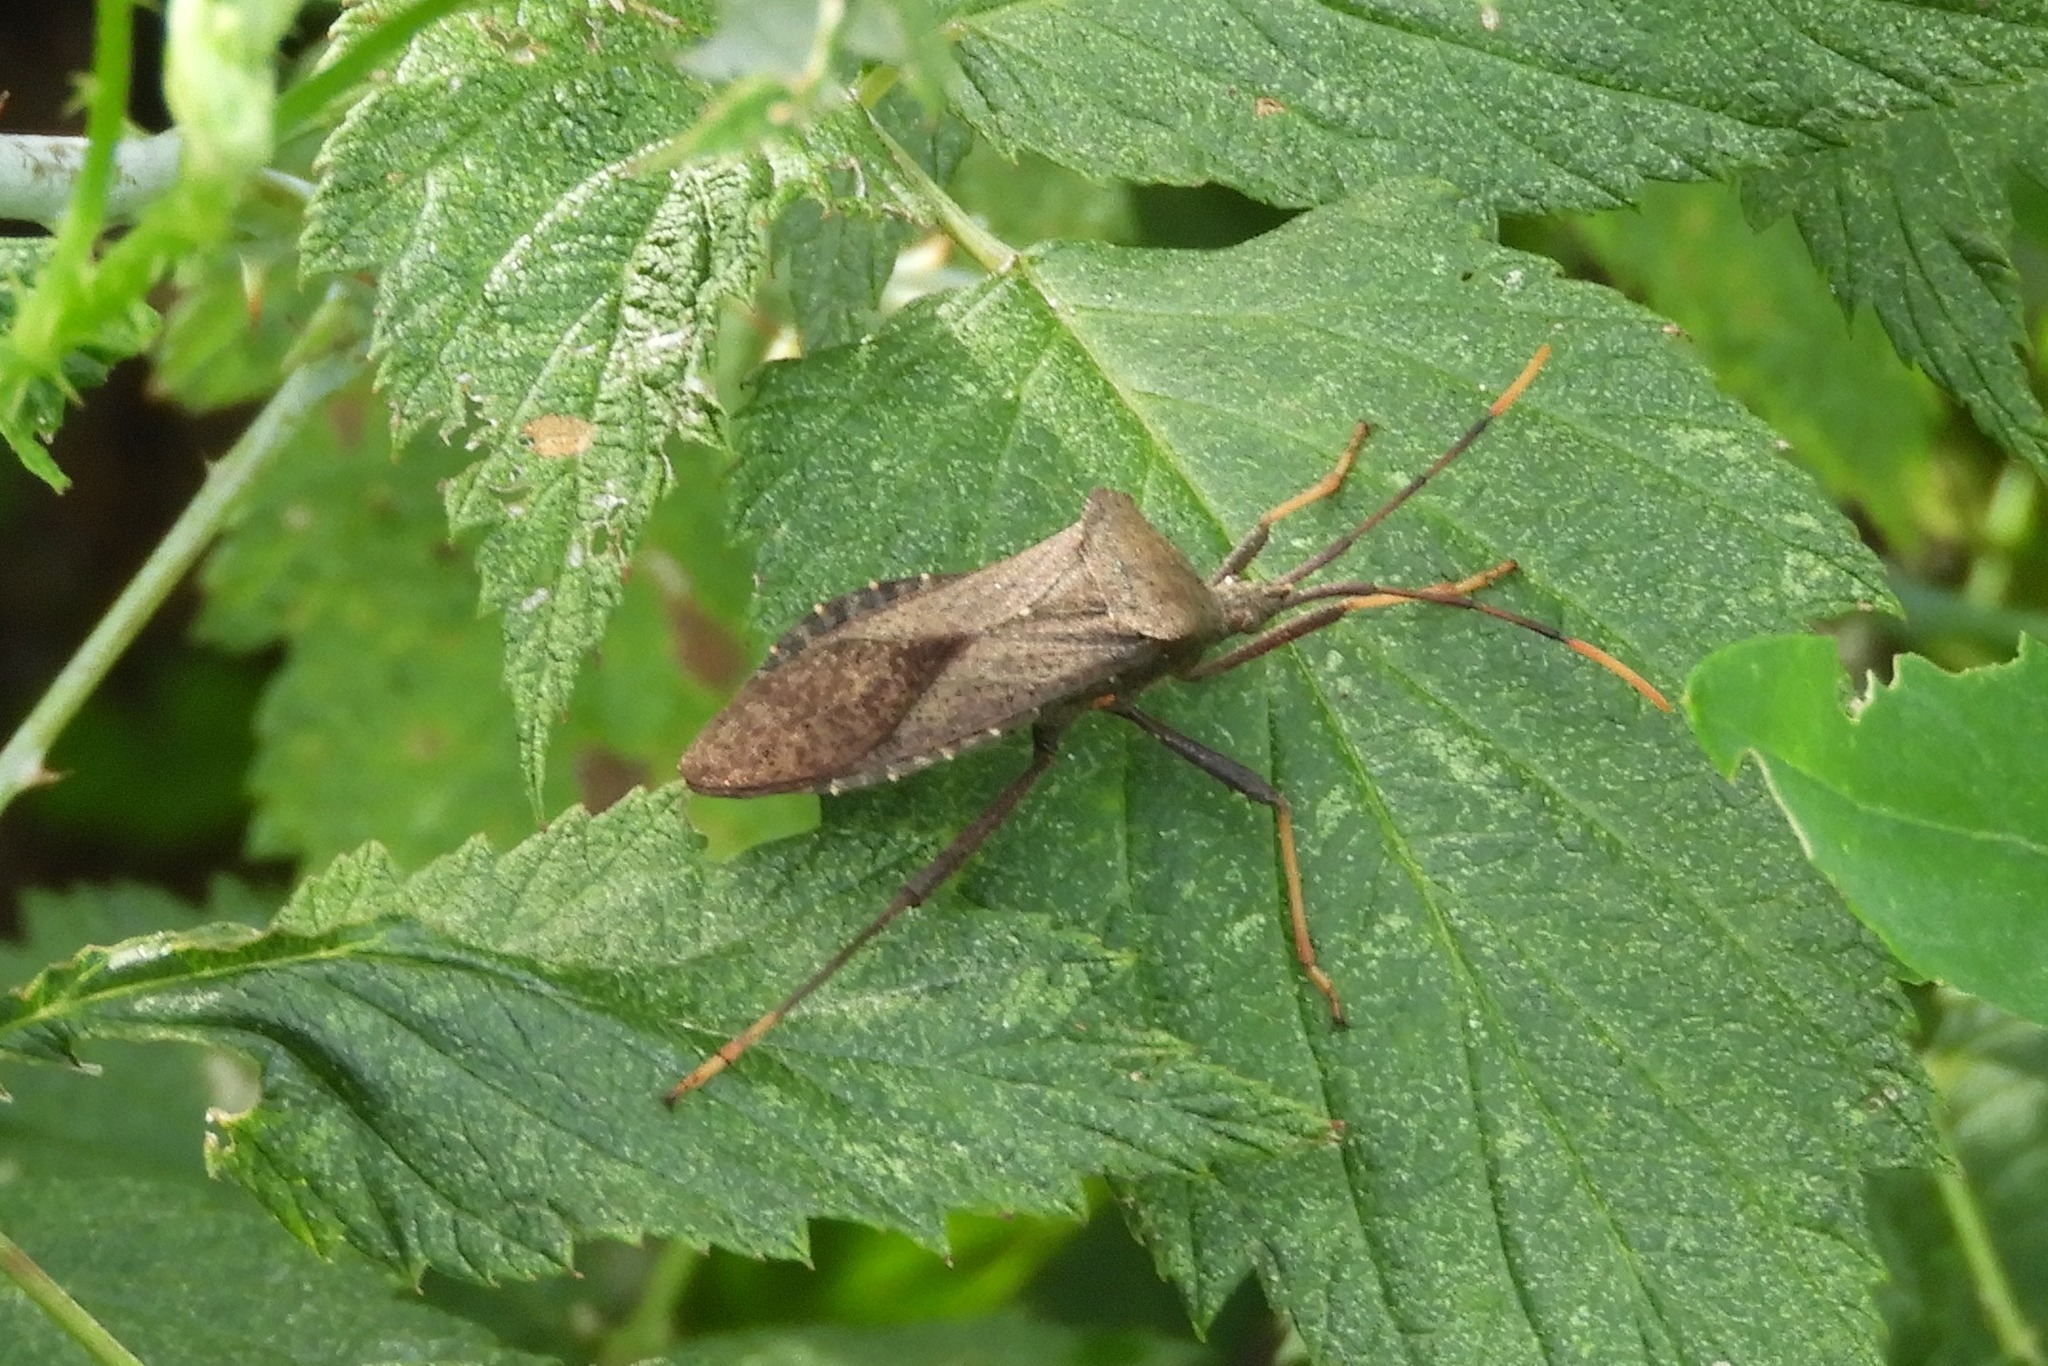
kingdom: Animalia
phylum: Arthropoda
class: Insecta
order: Hemiptera
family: Coreidae
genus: Acanthocephala
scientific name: Acanthocephala terminalis
